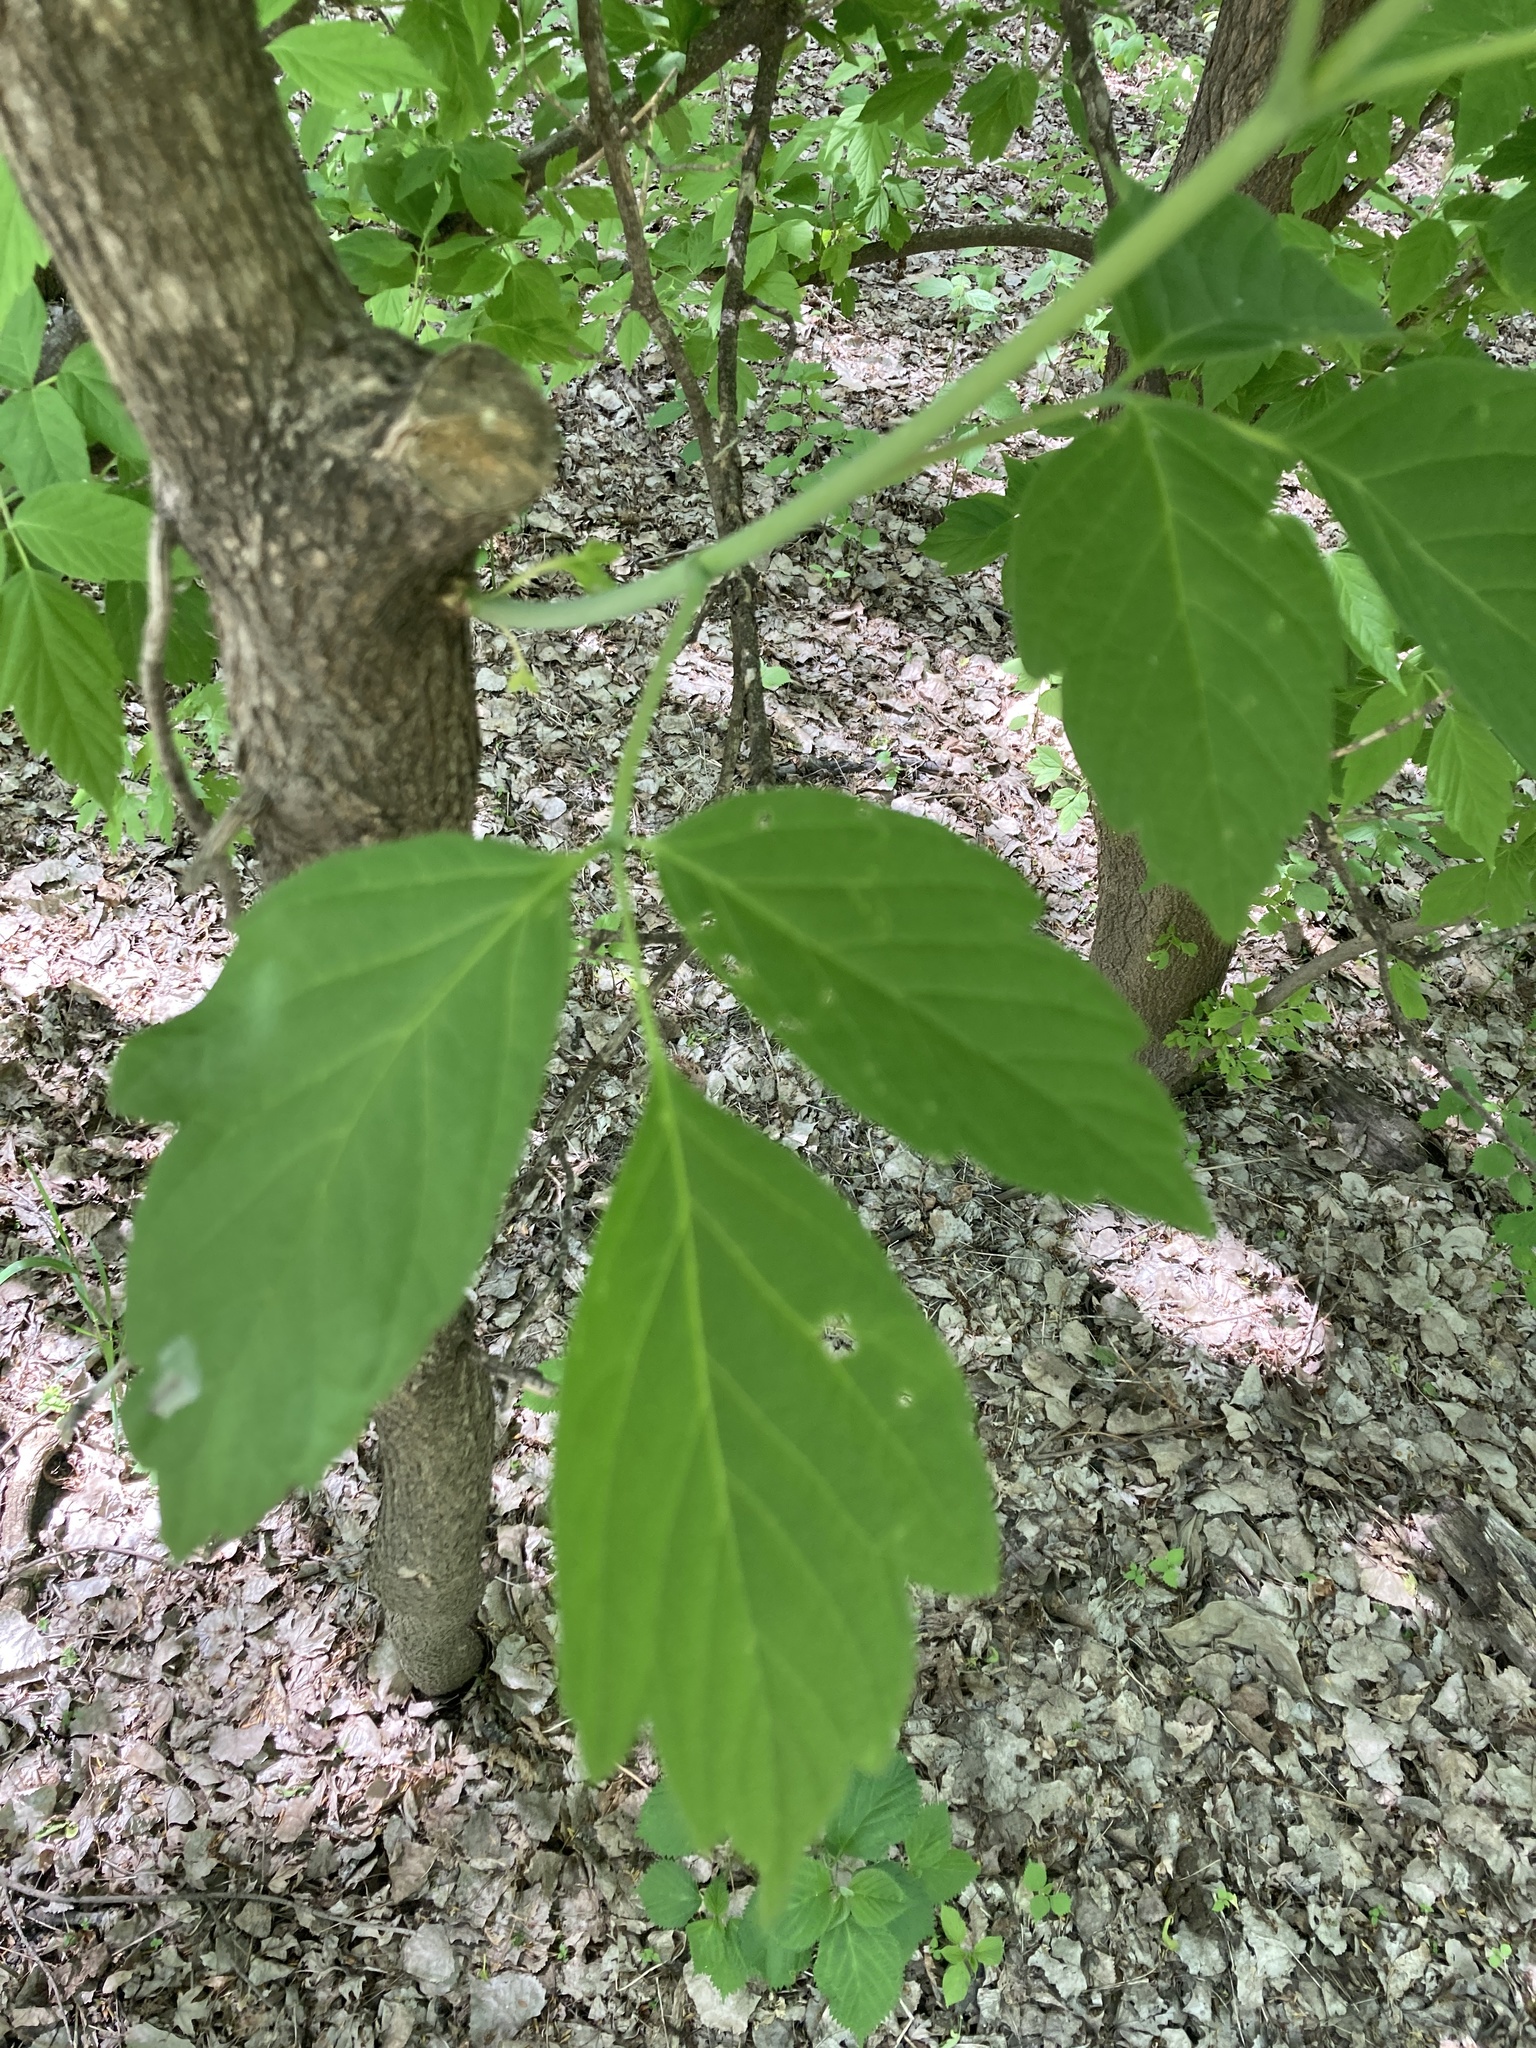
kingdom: Plantae
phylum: Tracheophyta
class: Magnoliopsida
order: Sapindales
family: Sapindaceae
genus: Acer
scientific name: Acer negundo
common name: Ashleaf maple
